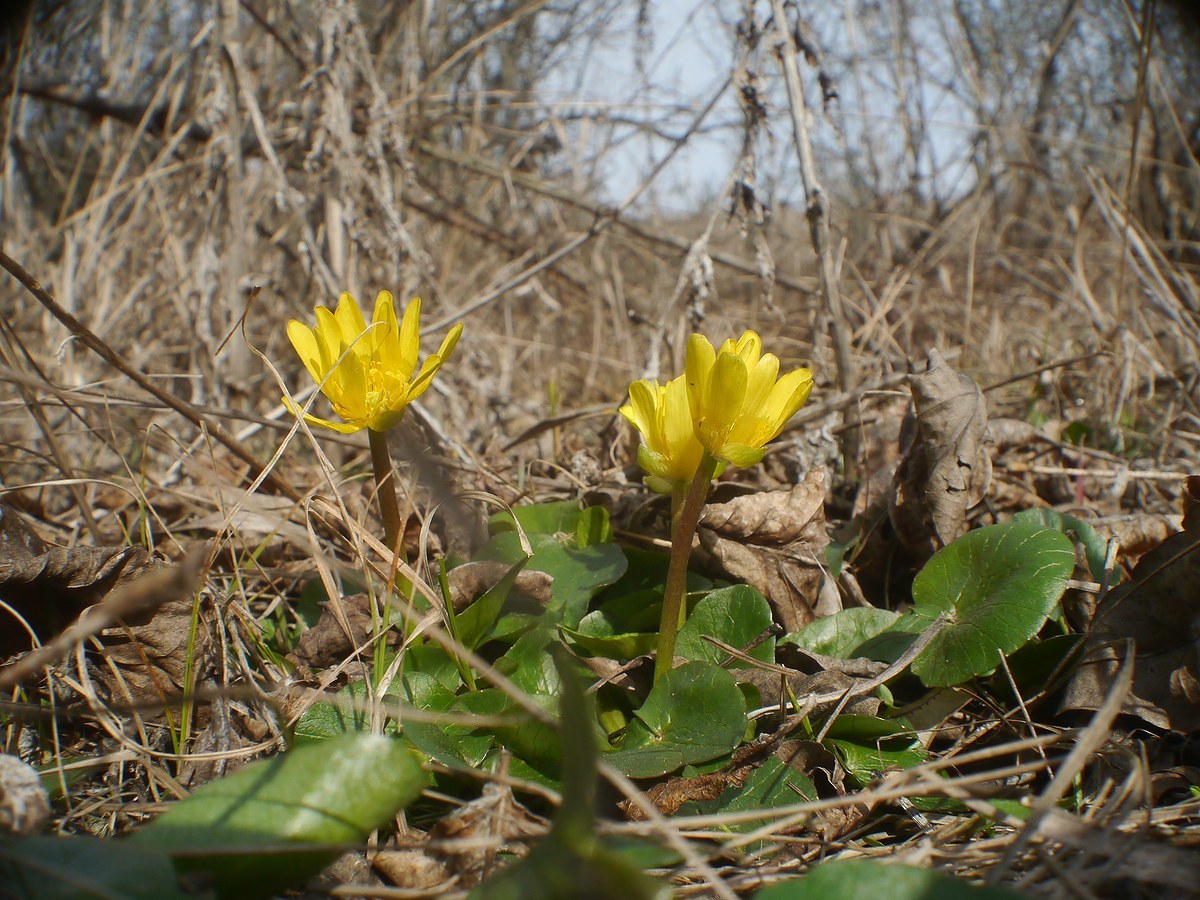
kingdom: Plantae
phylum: Tracheophyta
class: Magnoliopsida
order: Ranunculales
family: Ranunculaceae
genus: Ficaria
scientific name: Ficaria verna
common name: Lesser celandine
